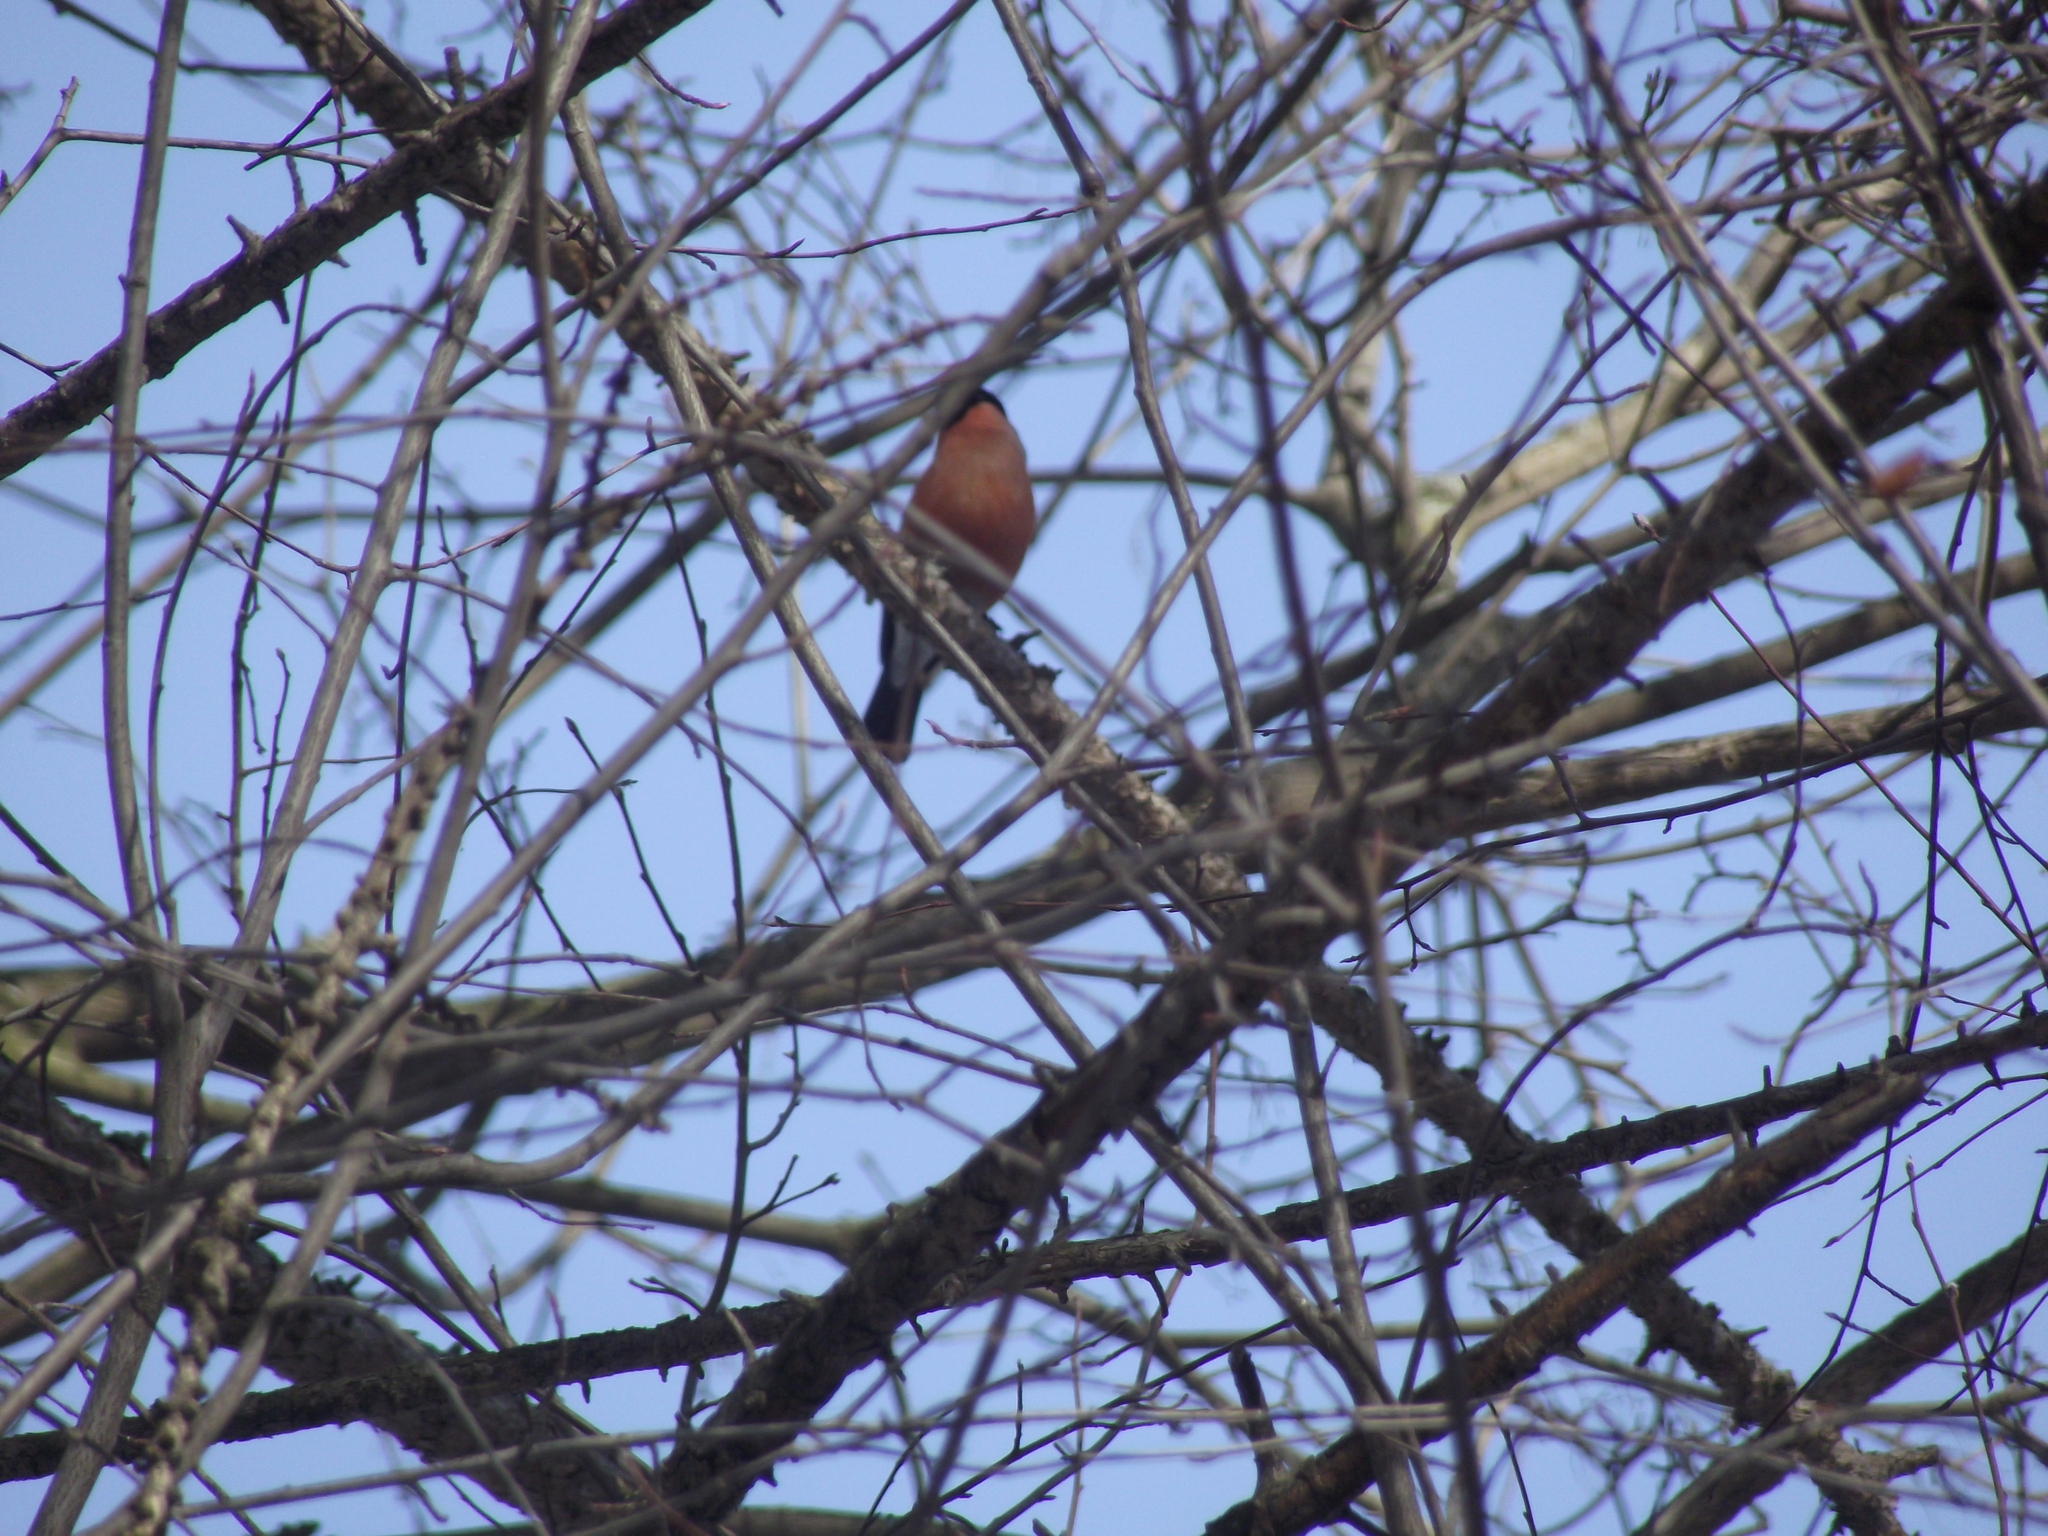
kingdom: Animalia
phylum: Chordata
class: Aves
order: Passeriformes
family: Fringillidae
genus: Pyrrhula
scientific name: Pyrrhula pyrrhula
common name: Eurasian bullfinch
